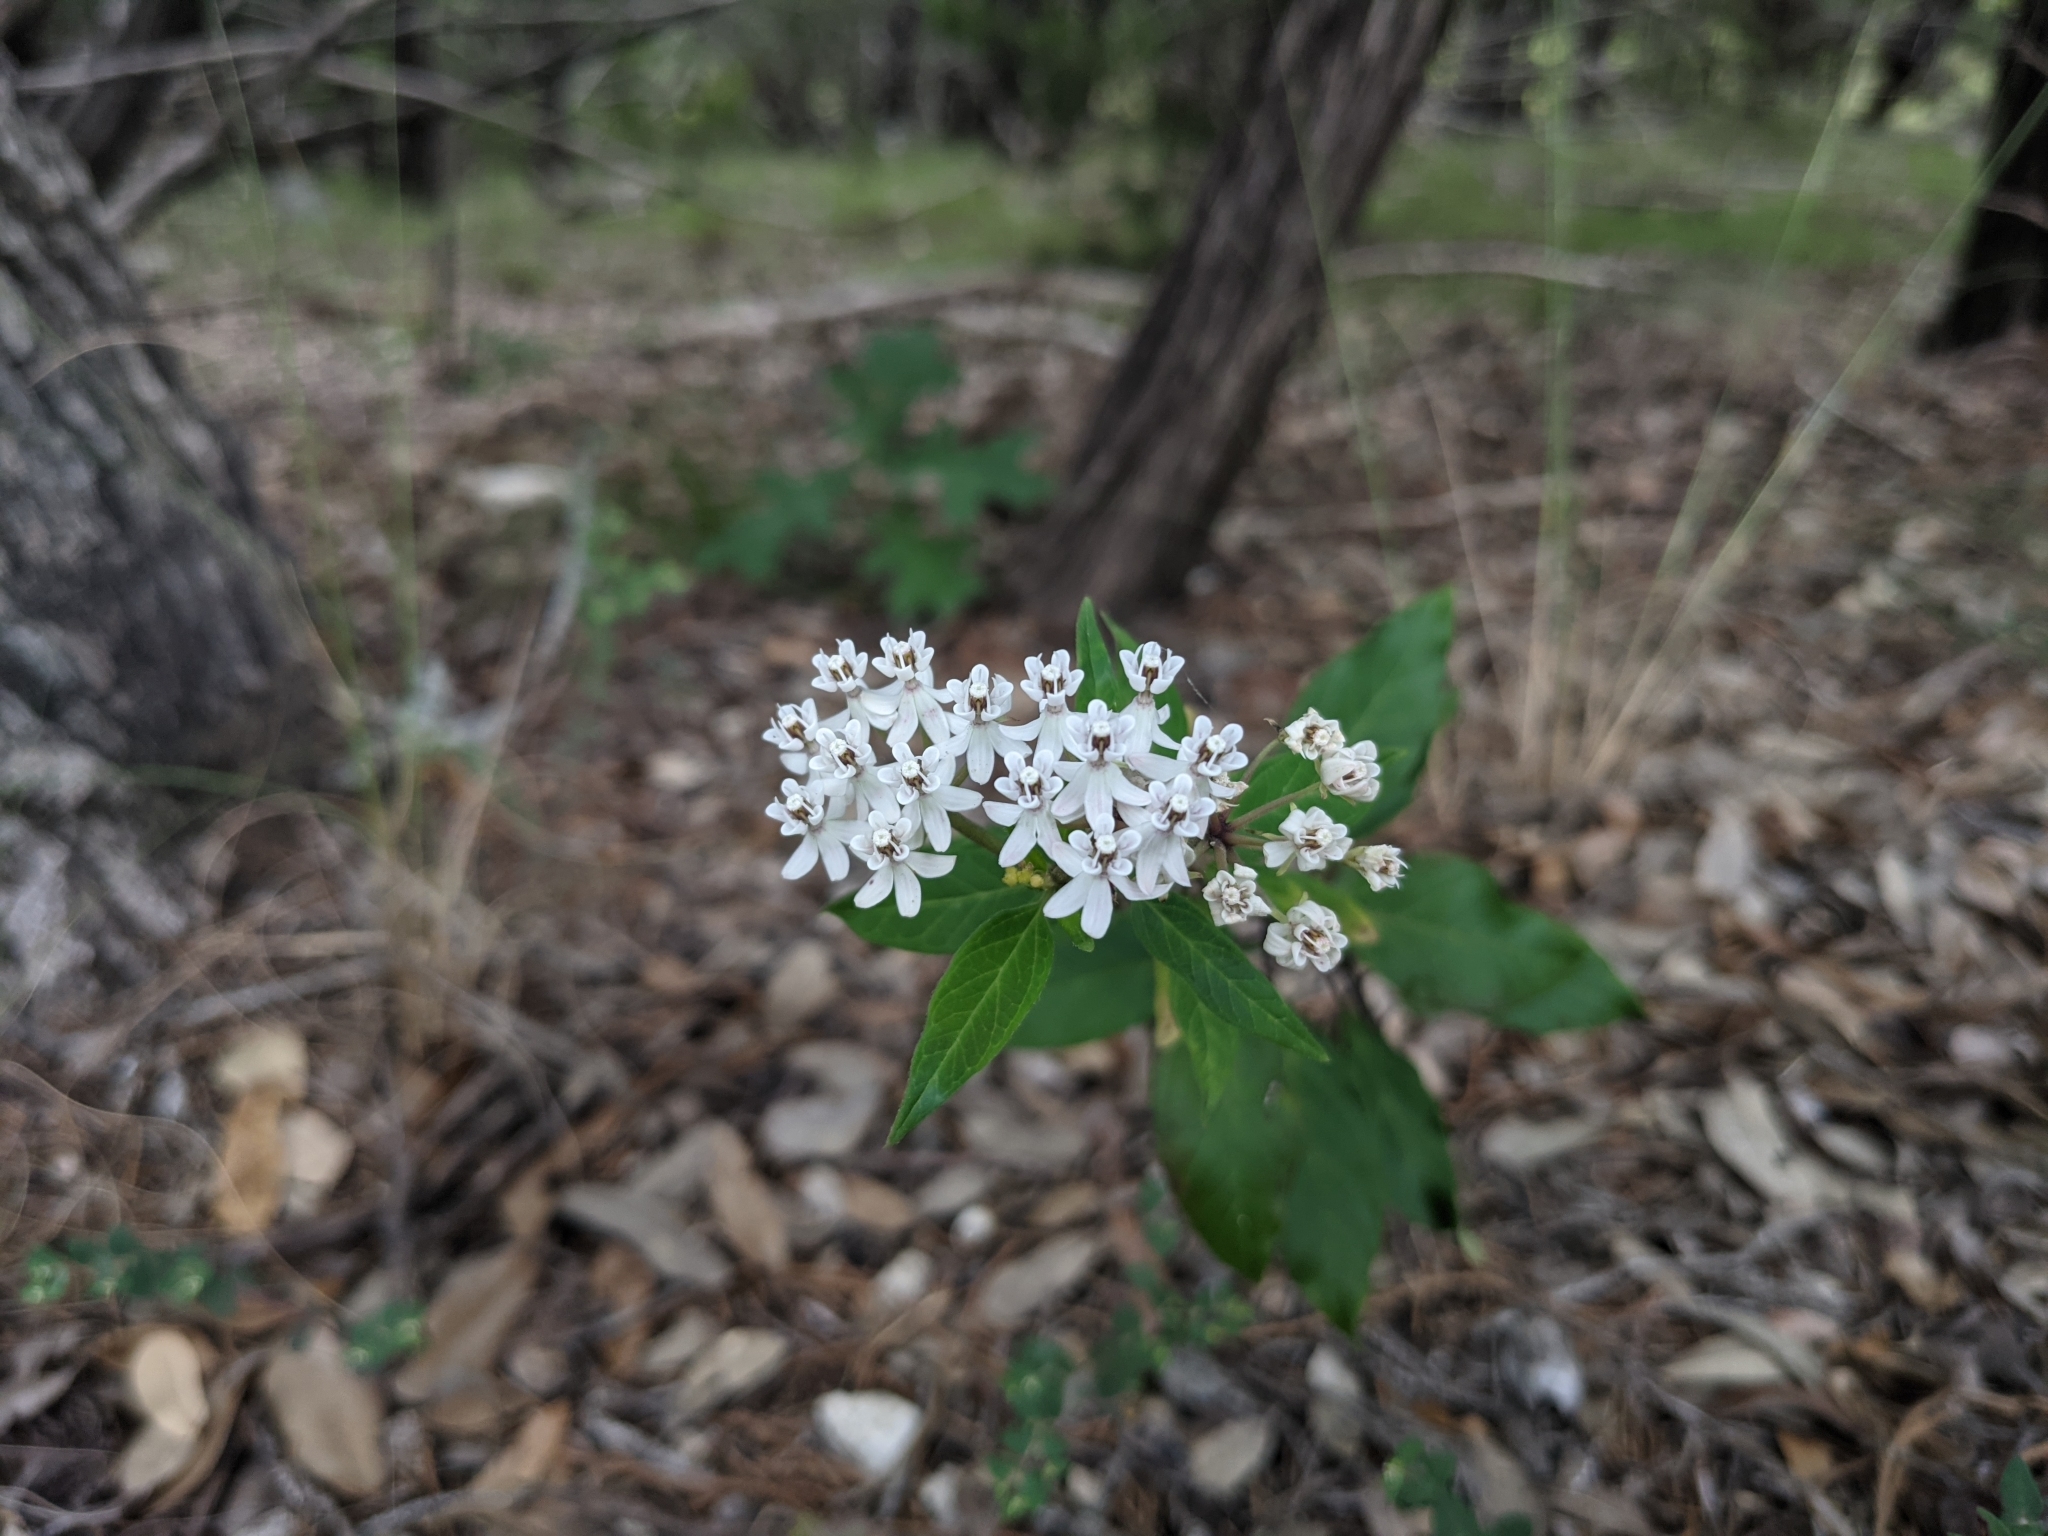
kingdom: Plantae
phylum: Tracheophyta
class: Magnoliopsida
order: Gentianales
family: Apocynaceae
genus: Asclepias
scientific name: Asclepias texana
